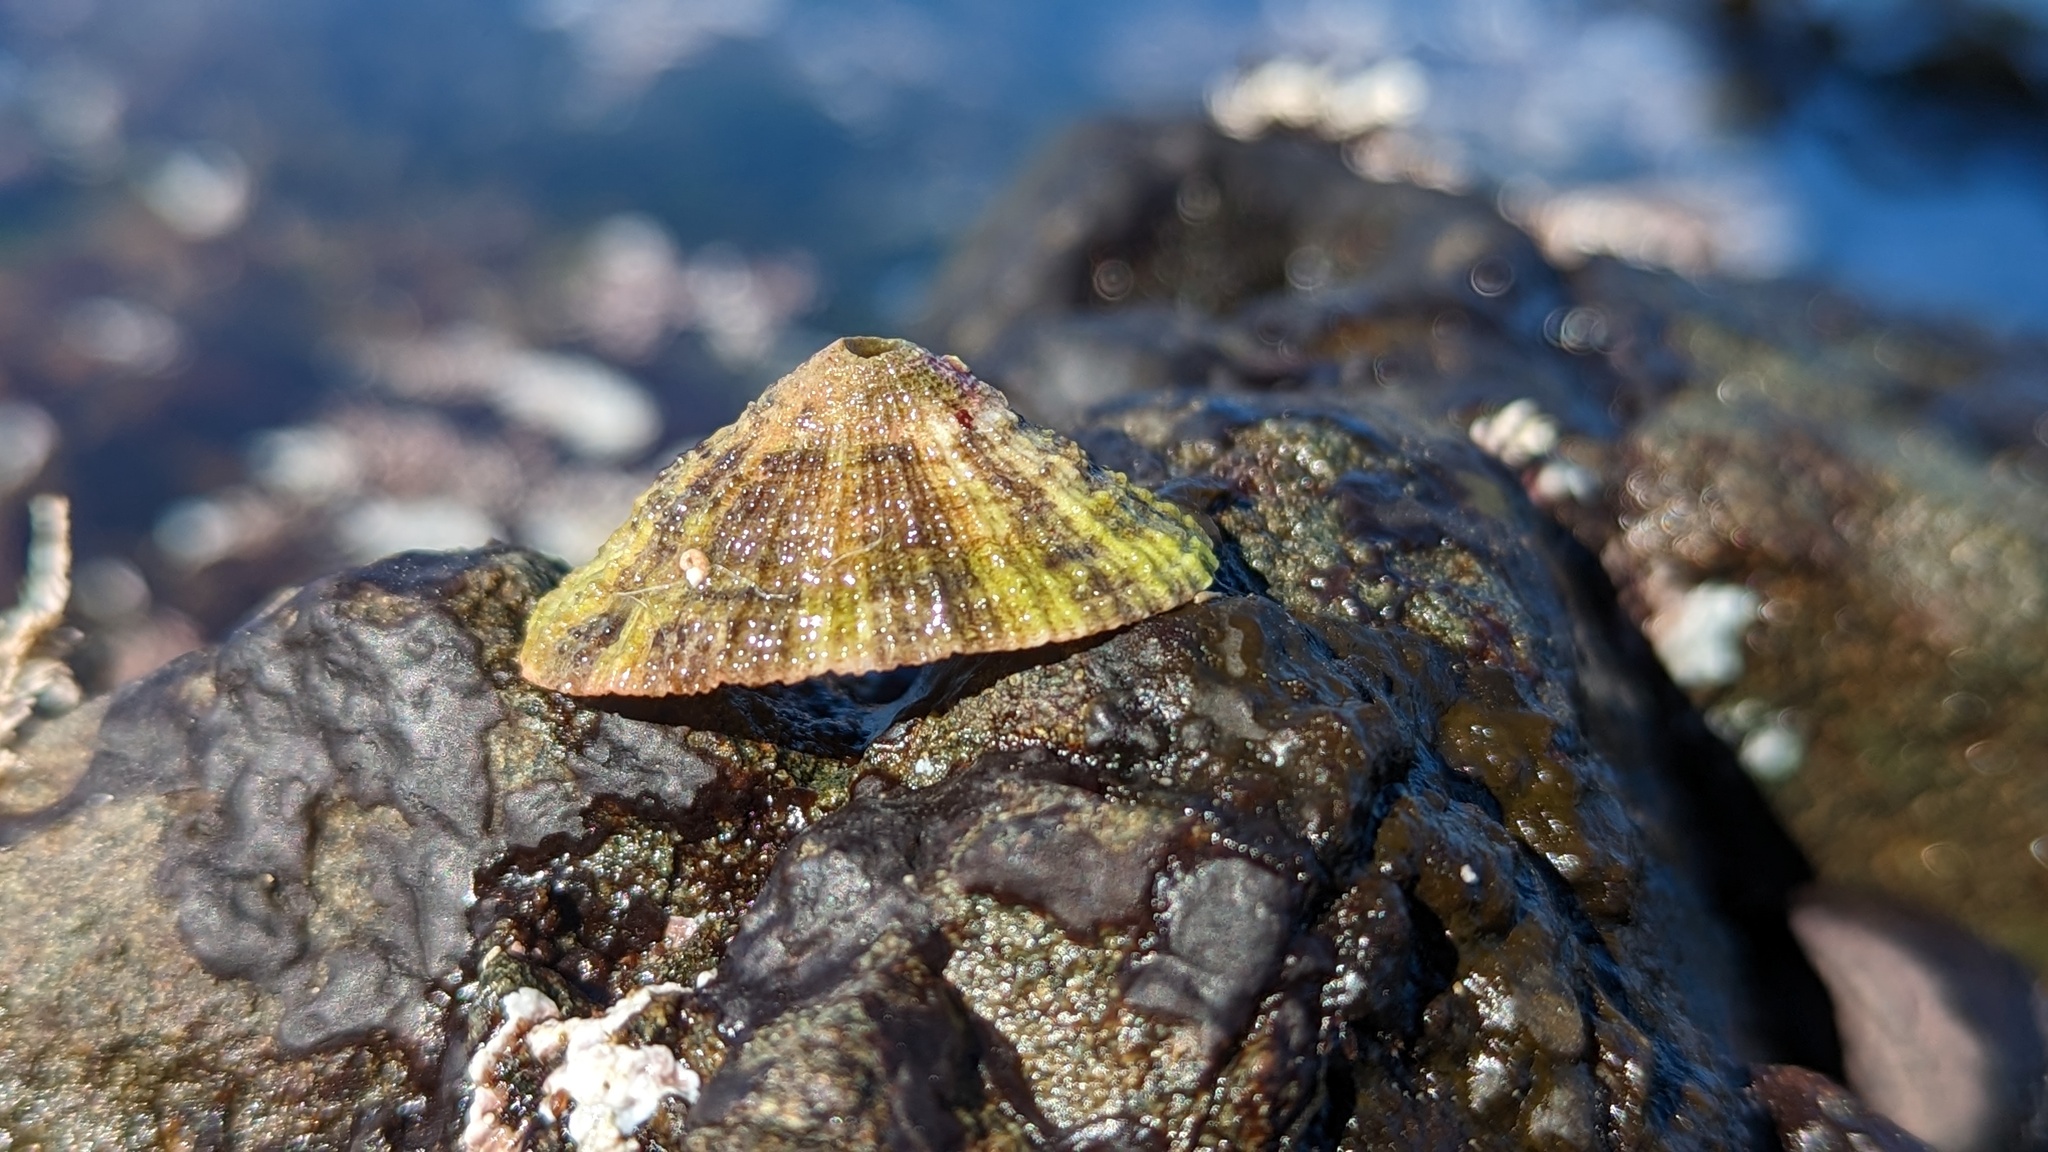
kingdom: Animalia
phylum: Mollusca
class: Gastropoda
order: Lepetellida
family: Fissurellidae
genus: Diodora
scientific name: Diodora aspera
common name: Rough keyhole limpet
